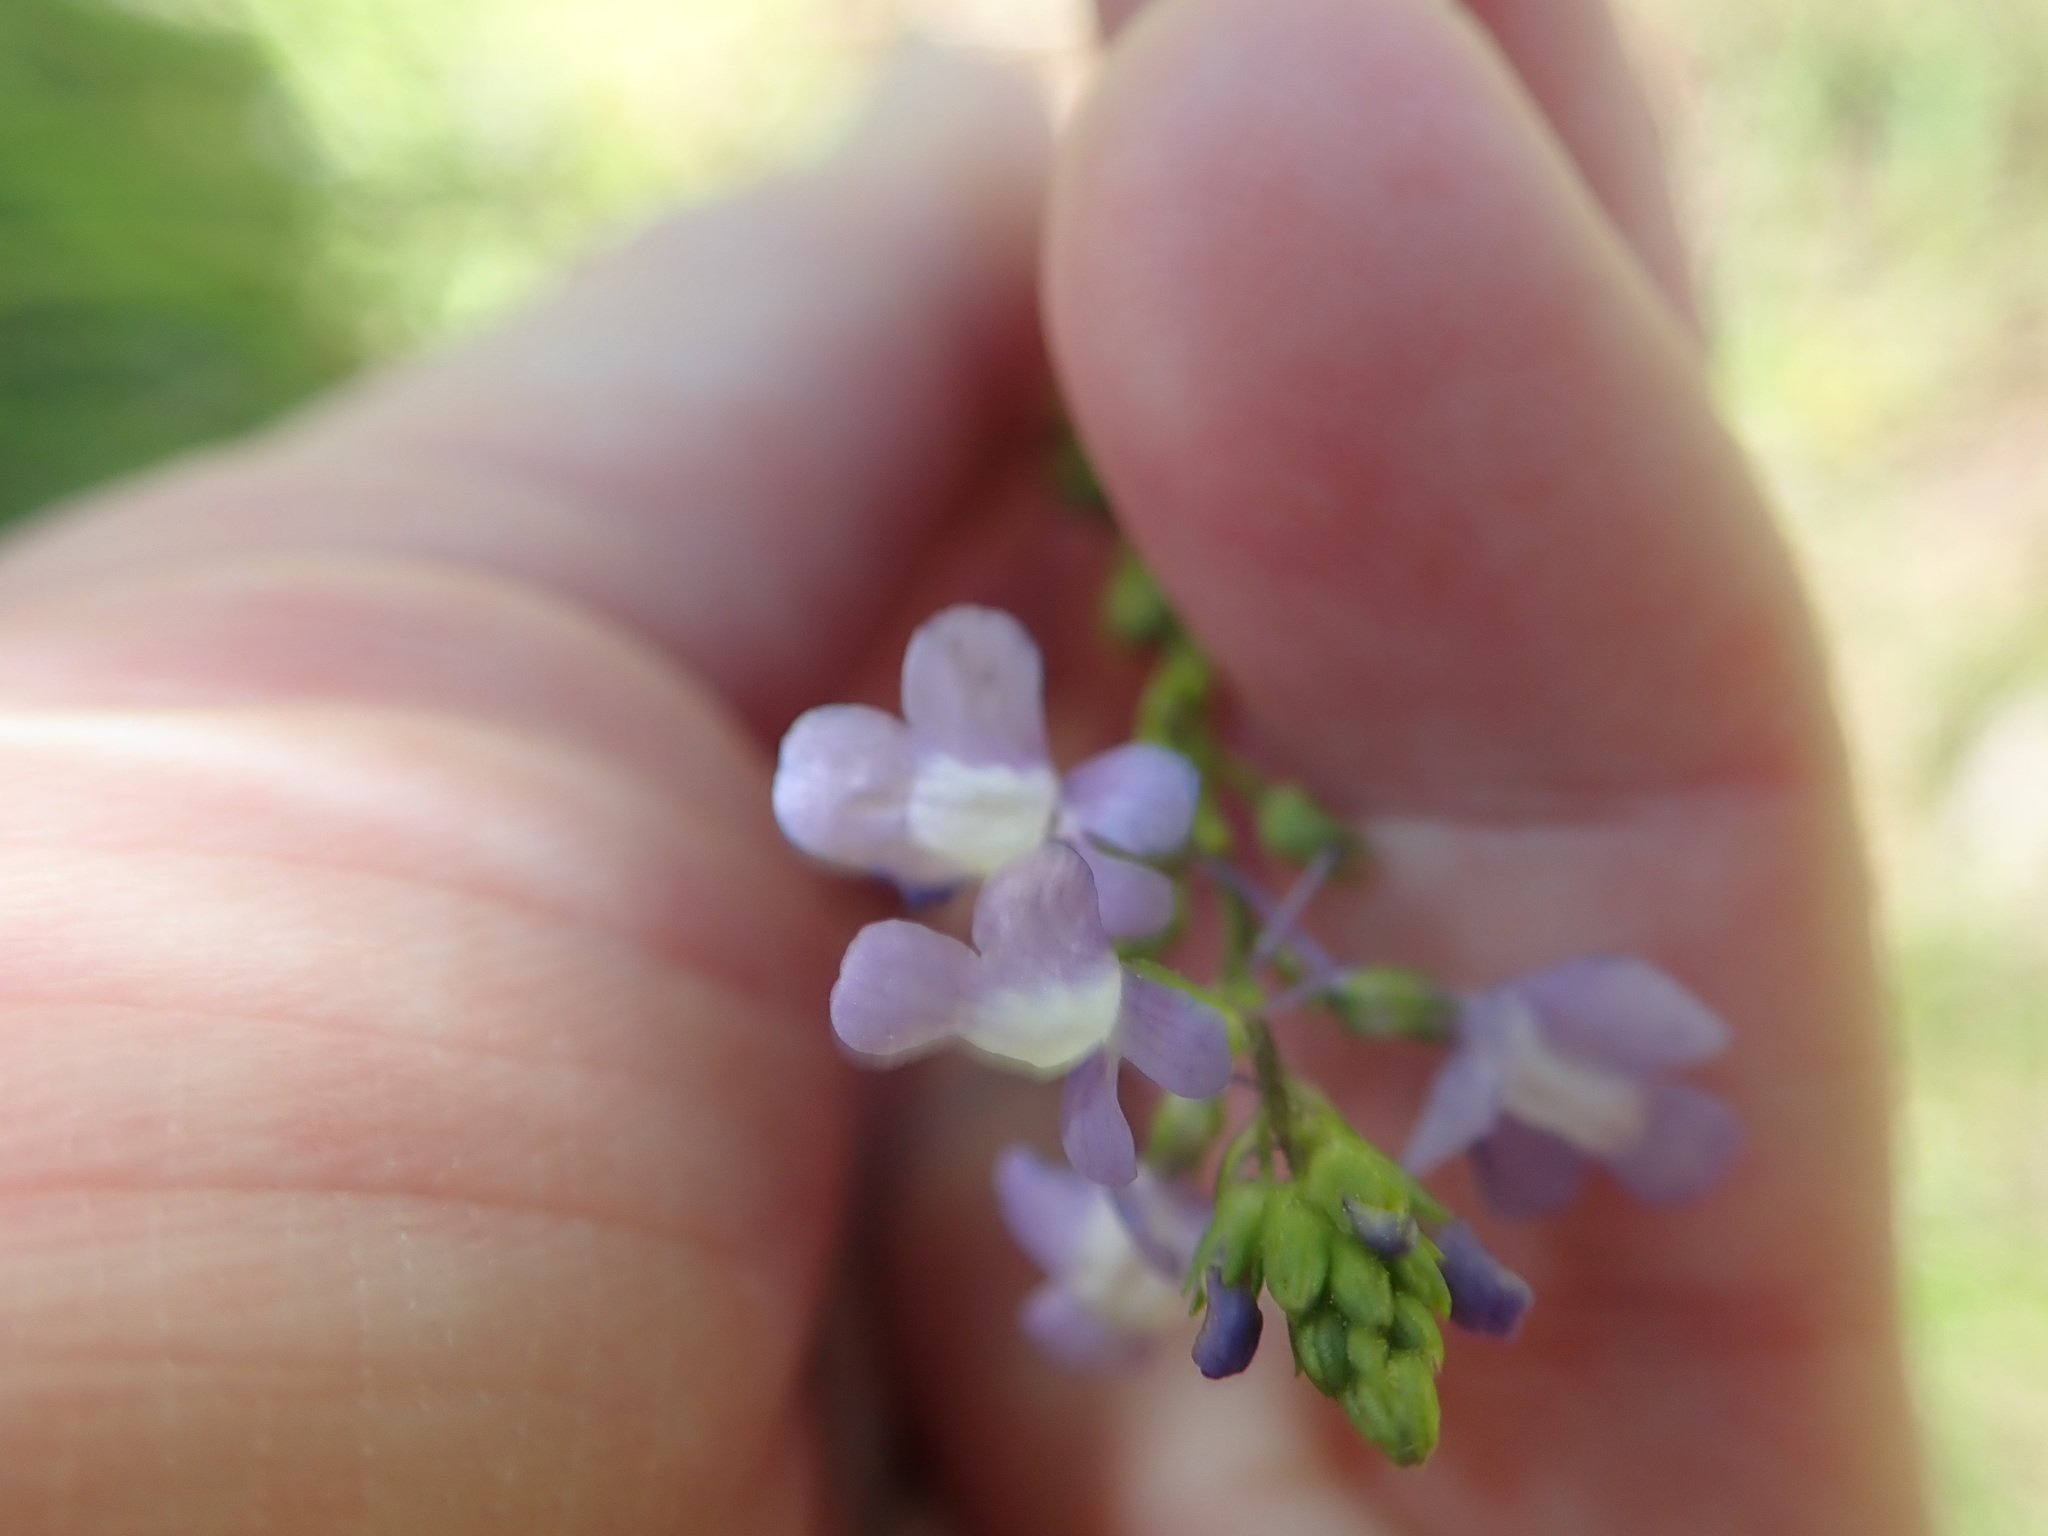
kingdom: Plantae
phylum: Tracheophyta
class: Magnoliopsida
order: Lamiales
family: Plantaginaceae
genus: Nuttallanthus
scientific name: Nuttallanthus canadensis
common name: Blue toadflax
